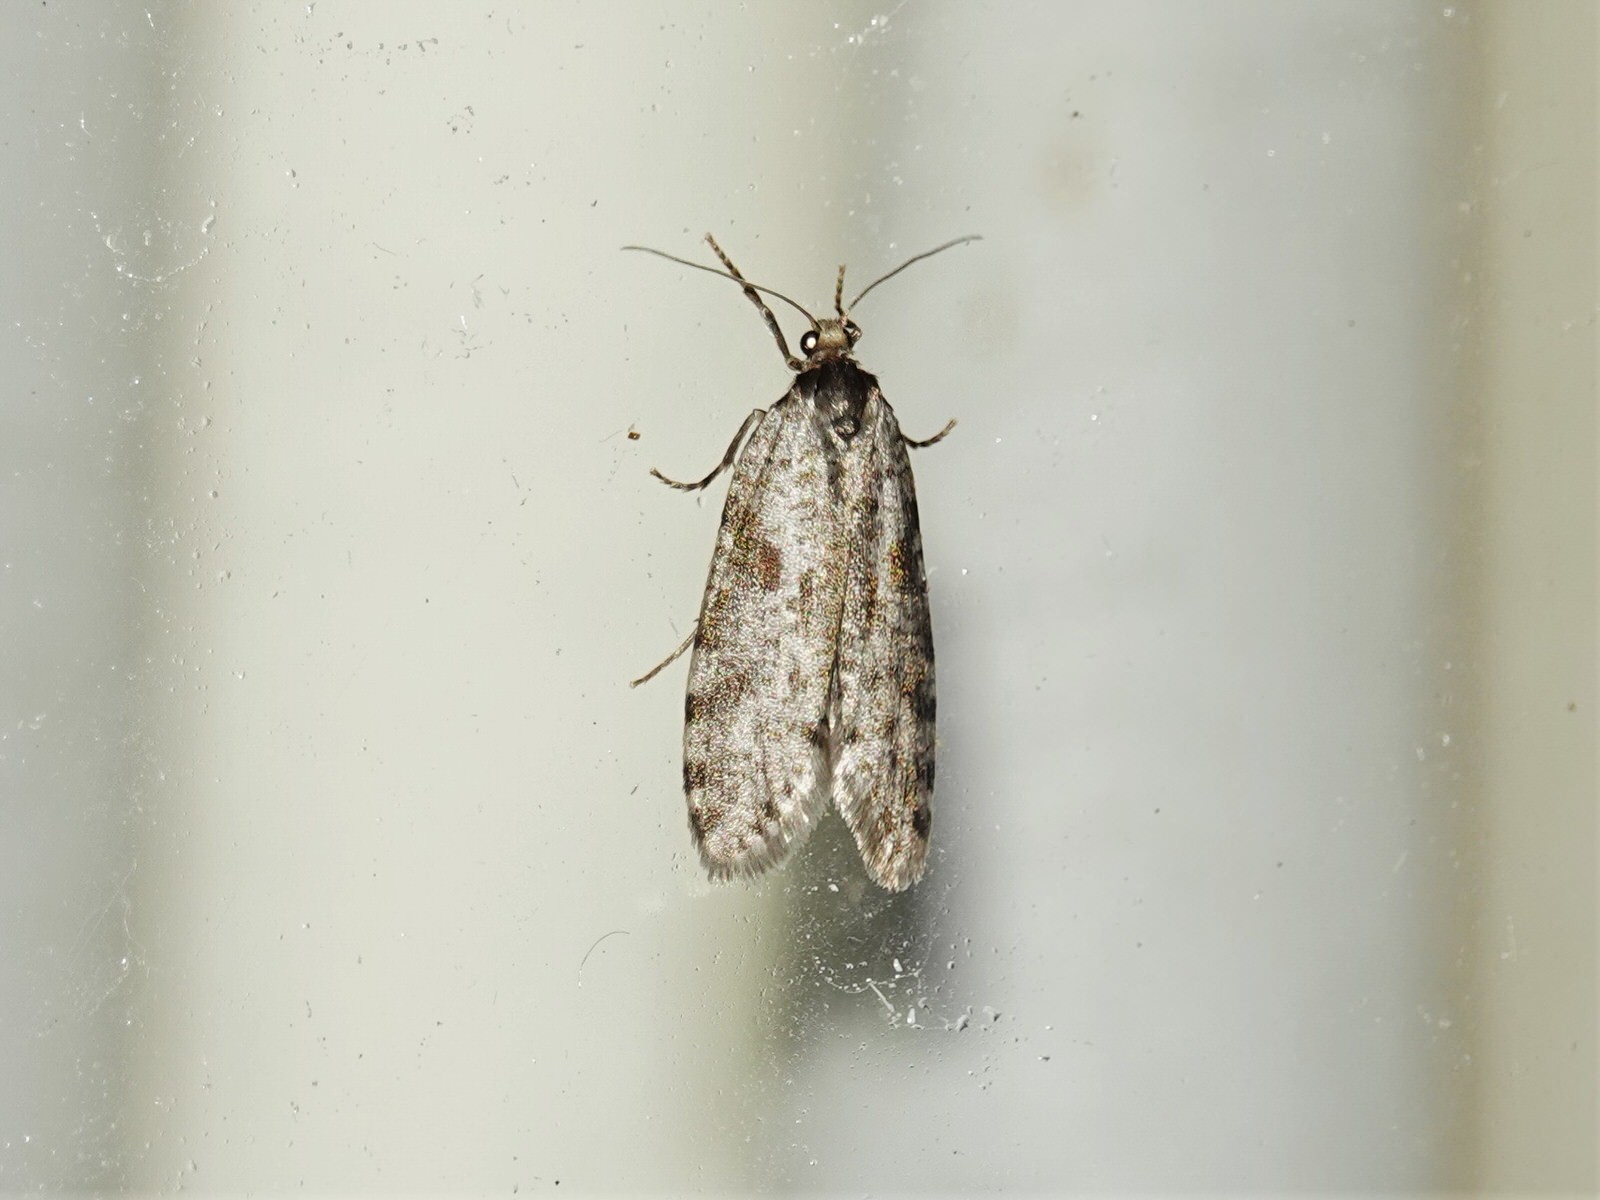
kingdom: Animalia
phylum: Arthropoda
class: Insecta
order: Lepidoptera
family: Psychidae
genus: Lepidoscia
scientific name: Lepidoscia protorna
